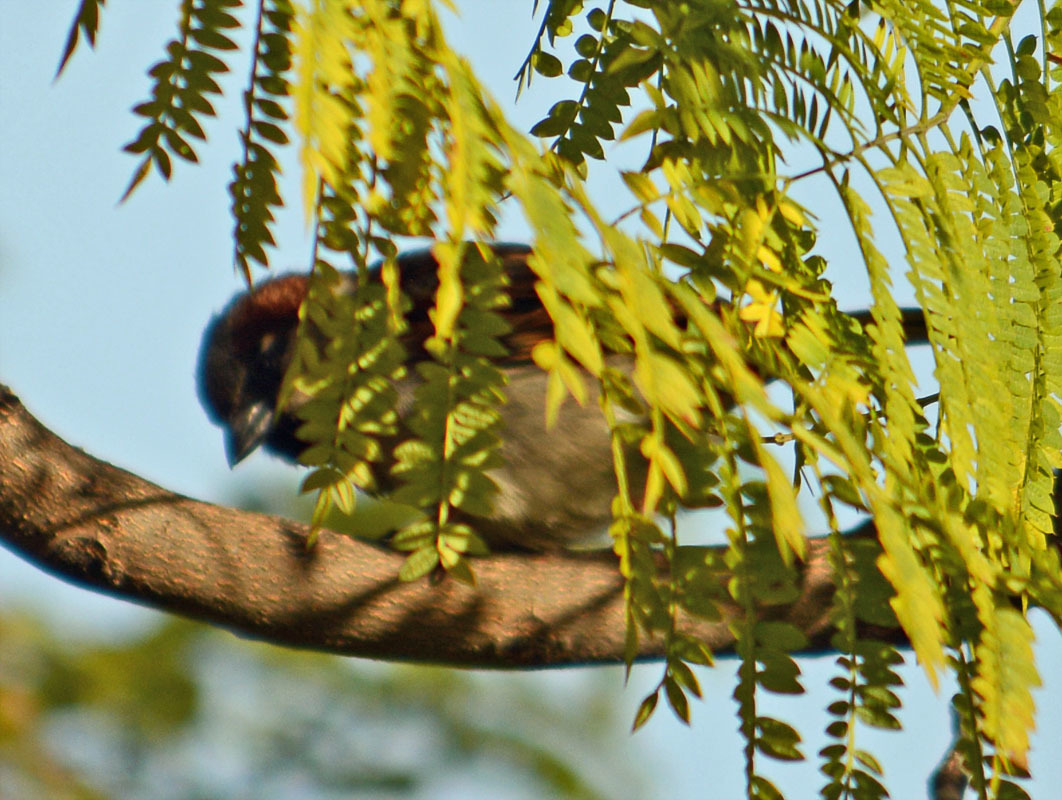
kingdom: Animalia
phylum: Chordata
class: Aves
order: Passeriformes
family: Passeridae
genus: Passer
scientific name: Passer domesticus
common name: House sparrow
